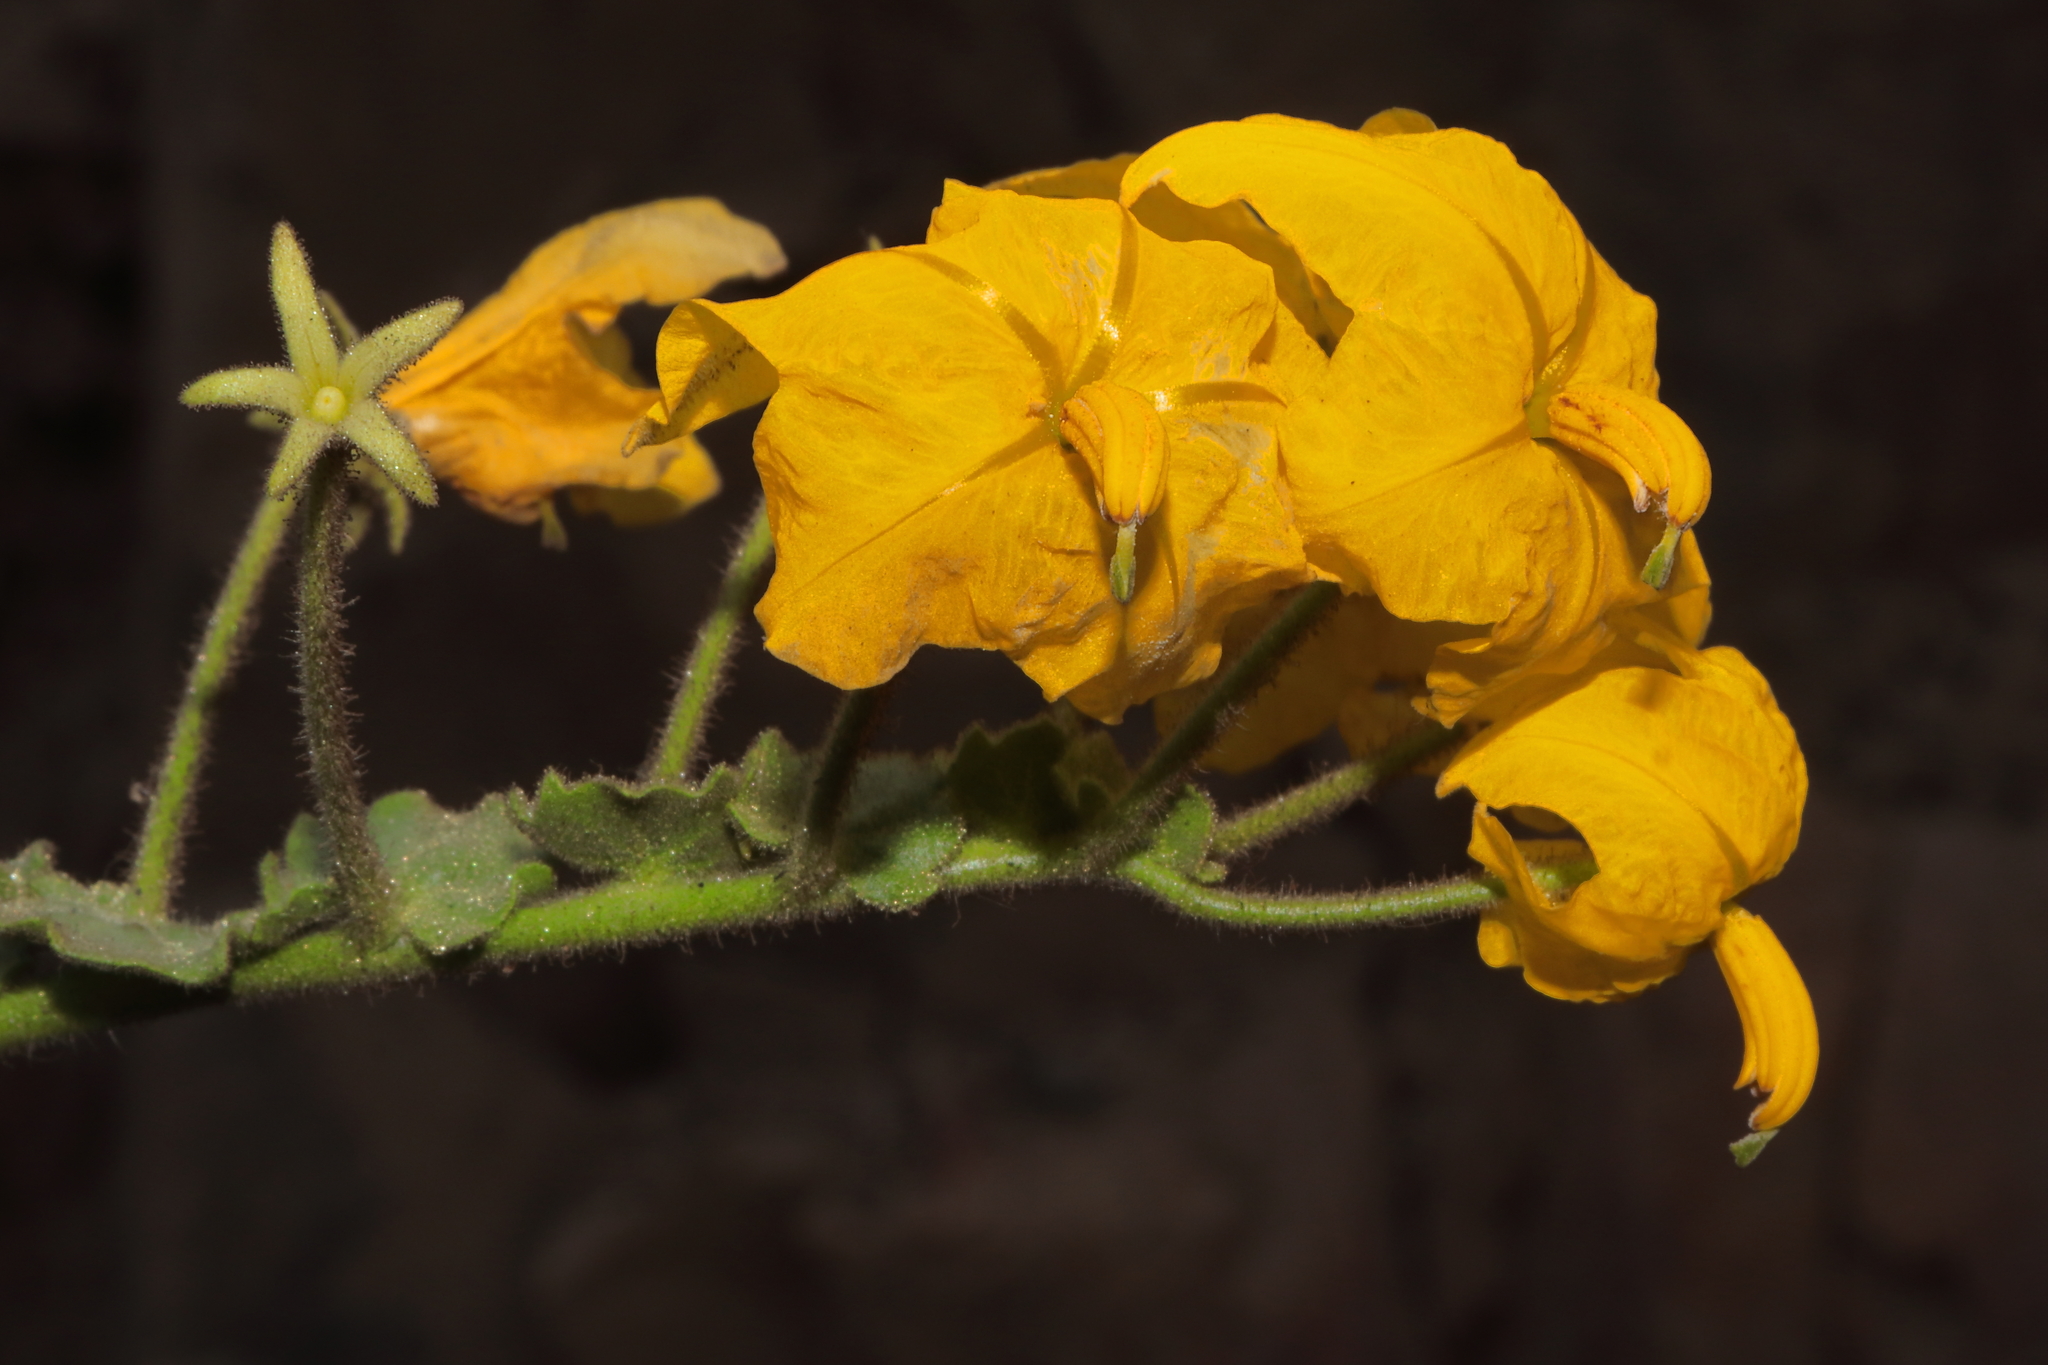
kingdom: Plantae
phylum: Tracheophyta
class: Magnoliopsida
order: Solanales
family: Solanaceae
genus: Solanum
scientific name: Solanum pennellii
